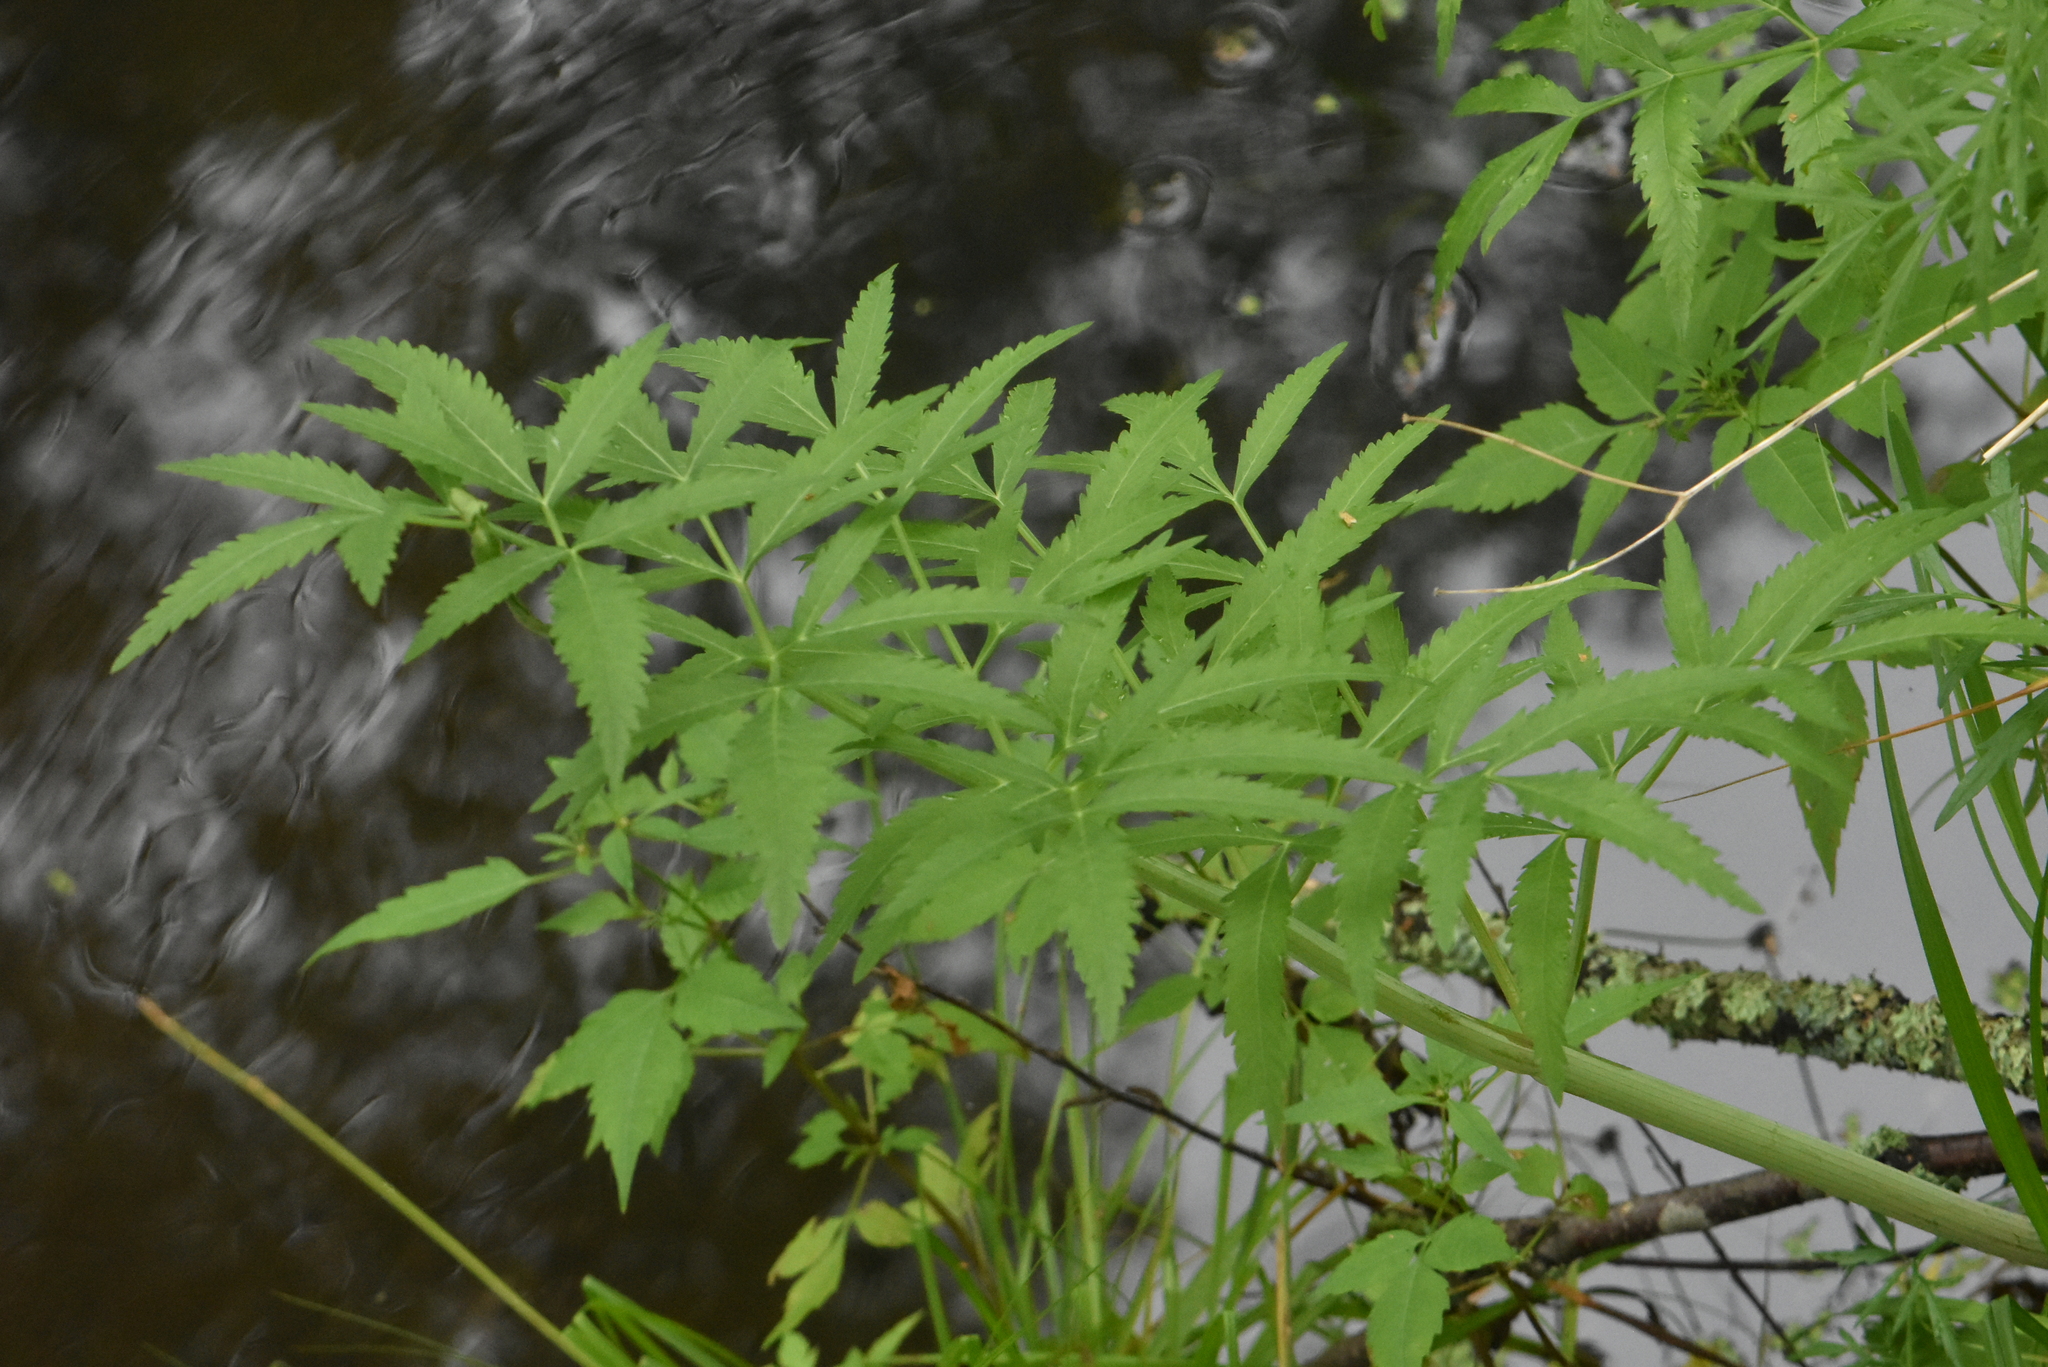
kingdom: Plantae
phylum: Tracheophyta
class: Magnoliopsida
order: Apiales
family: Apiaceae
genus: Cicuta
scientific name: Cicuta virosa
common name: Cowbane
